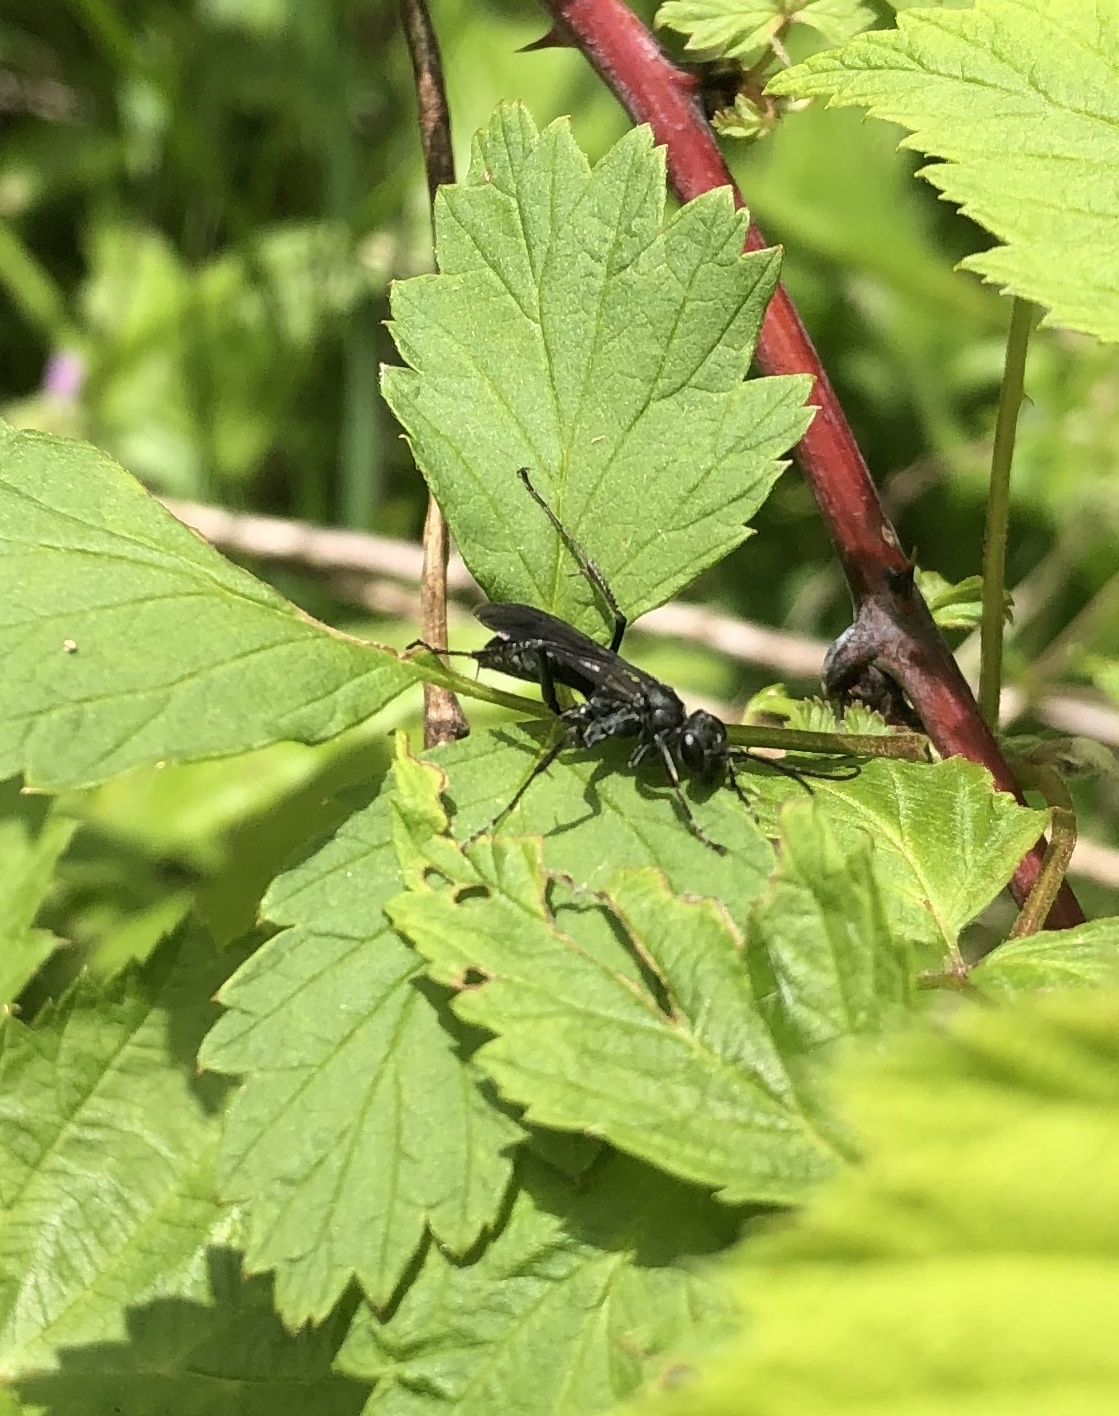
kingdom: Animalia
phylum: Arthropoda
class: Insecta
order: Hymenoptera
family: Pompilidae
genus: Priocnemis
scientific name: Priocnemis minorata
